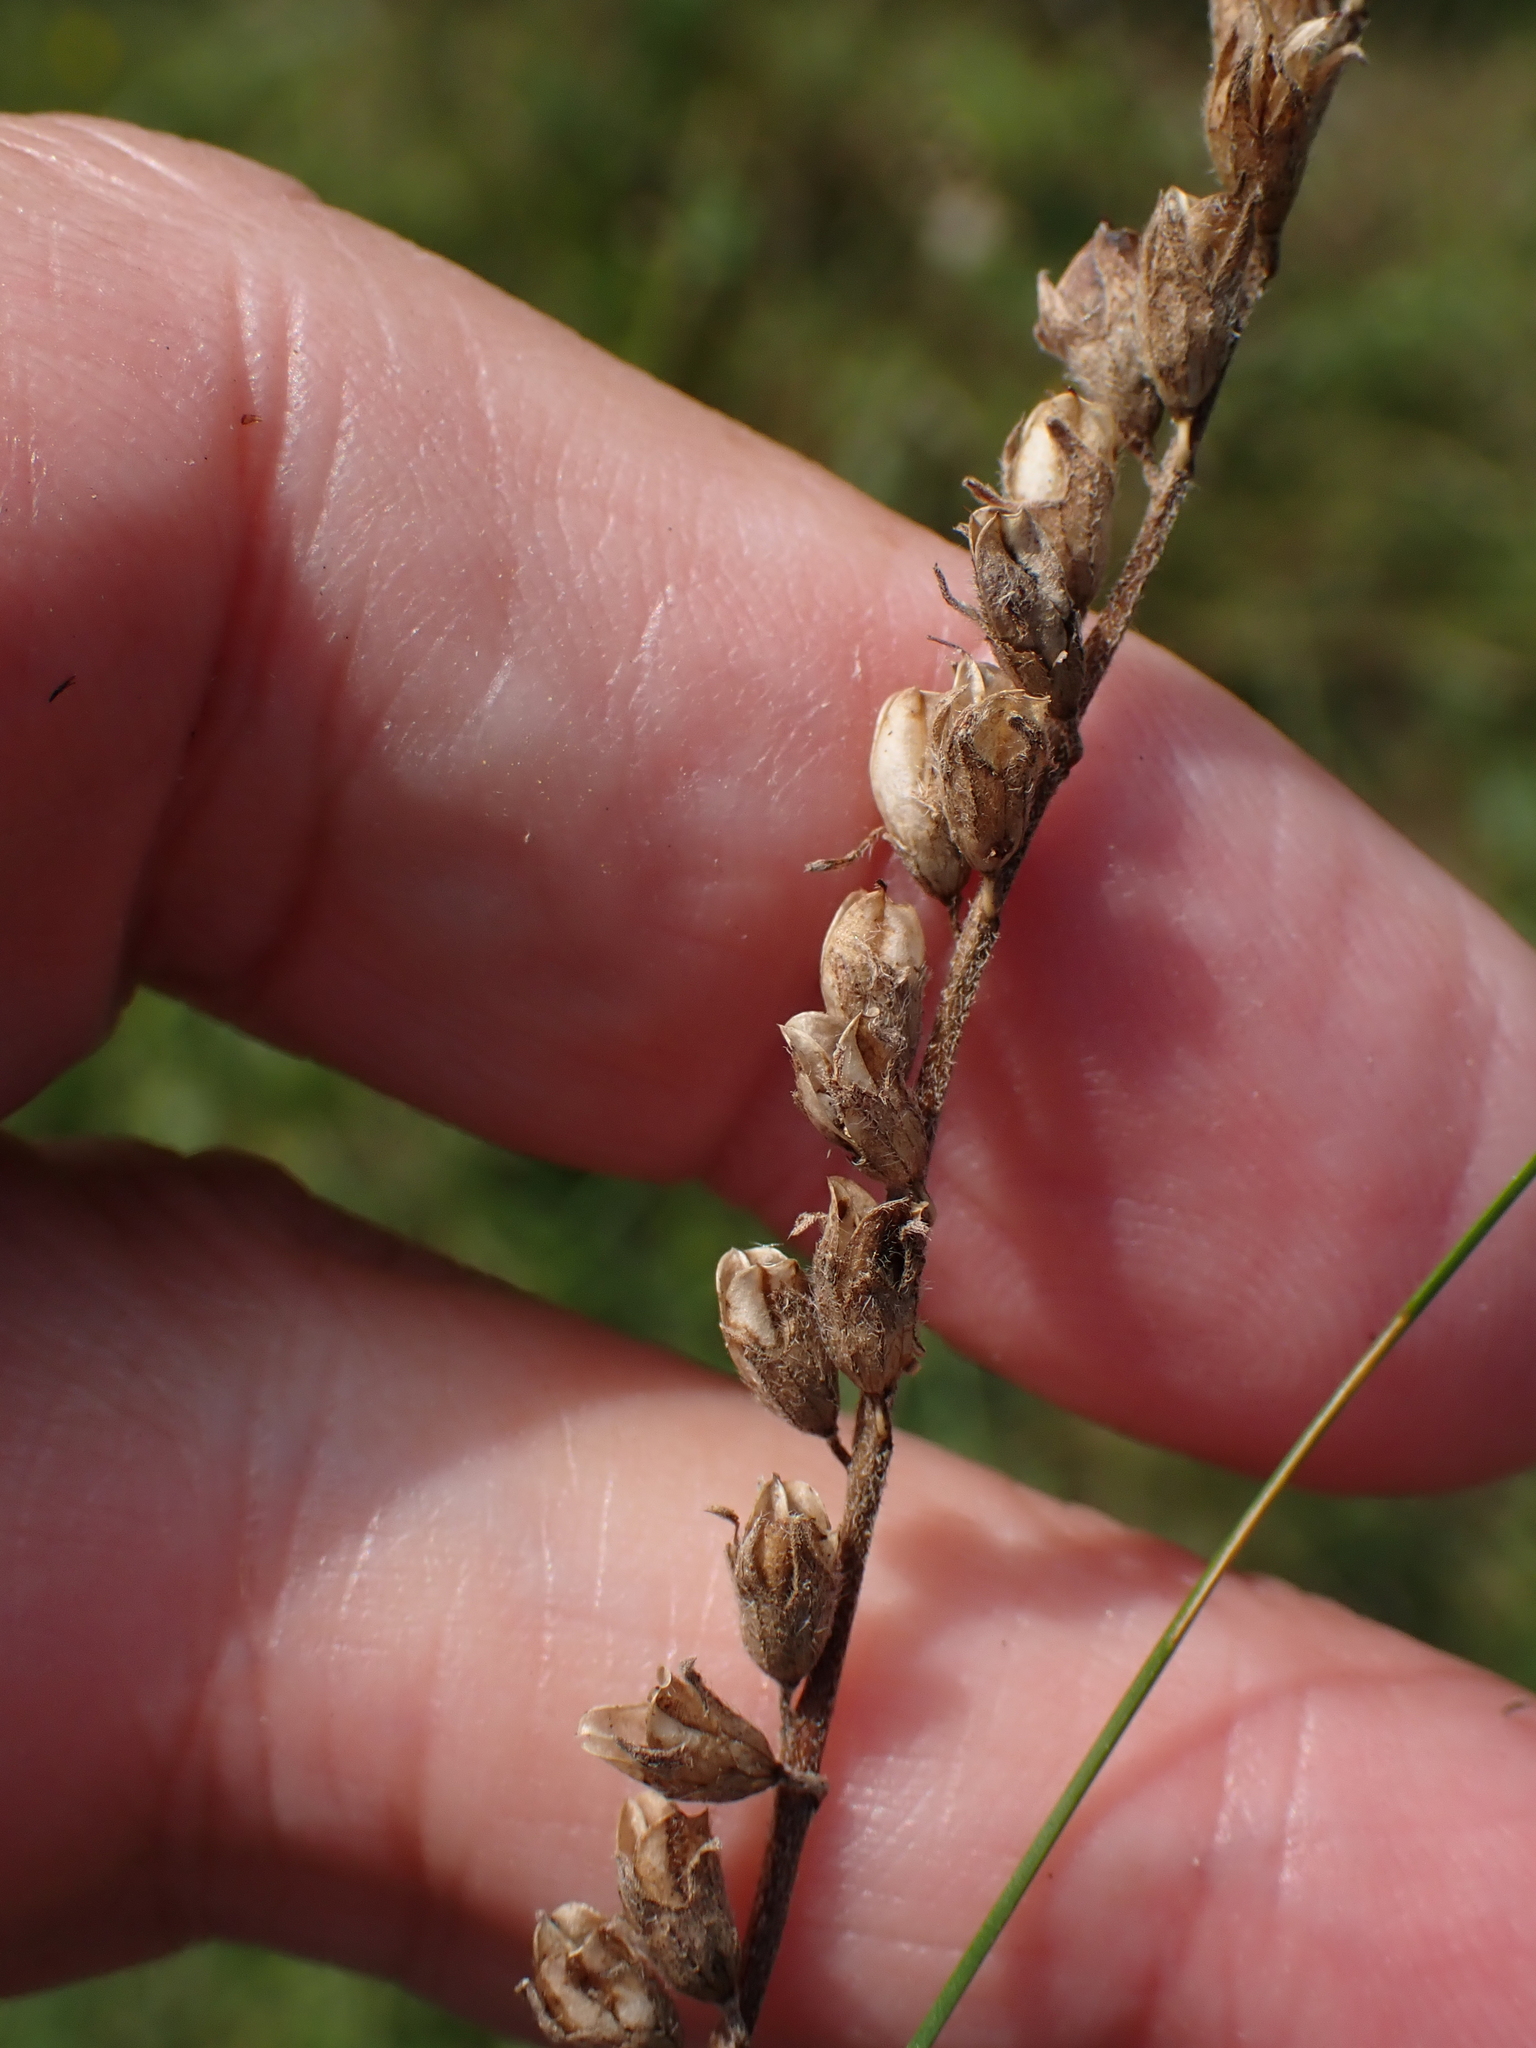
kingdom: Plantae
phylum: Tracheophyta
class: Magnoliopsida
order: Lamiales
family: Orobanchaceae
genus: Odontites
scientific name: Odontites vulgaris
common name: Broomrape
